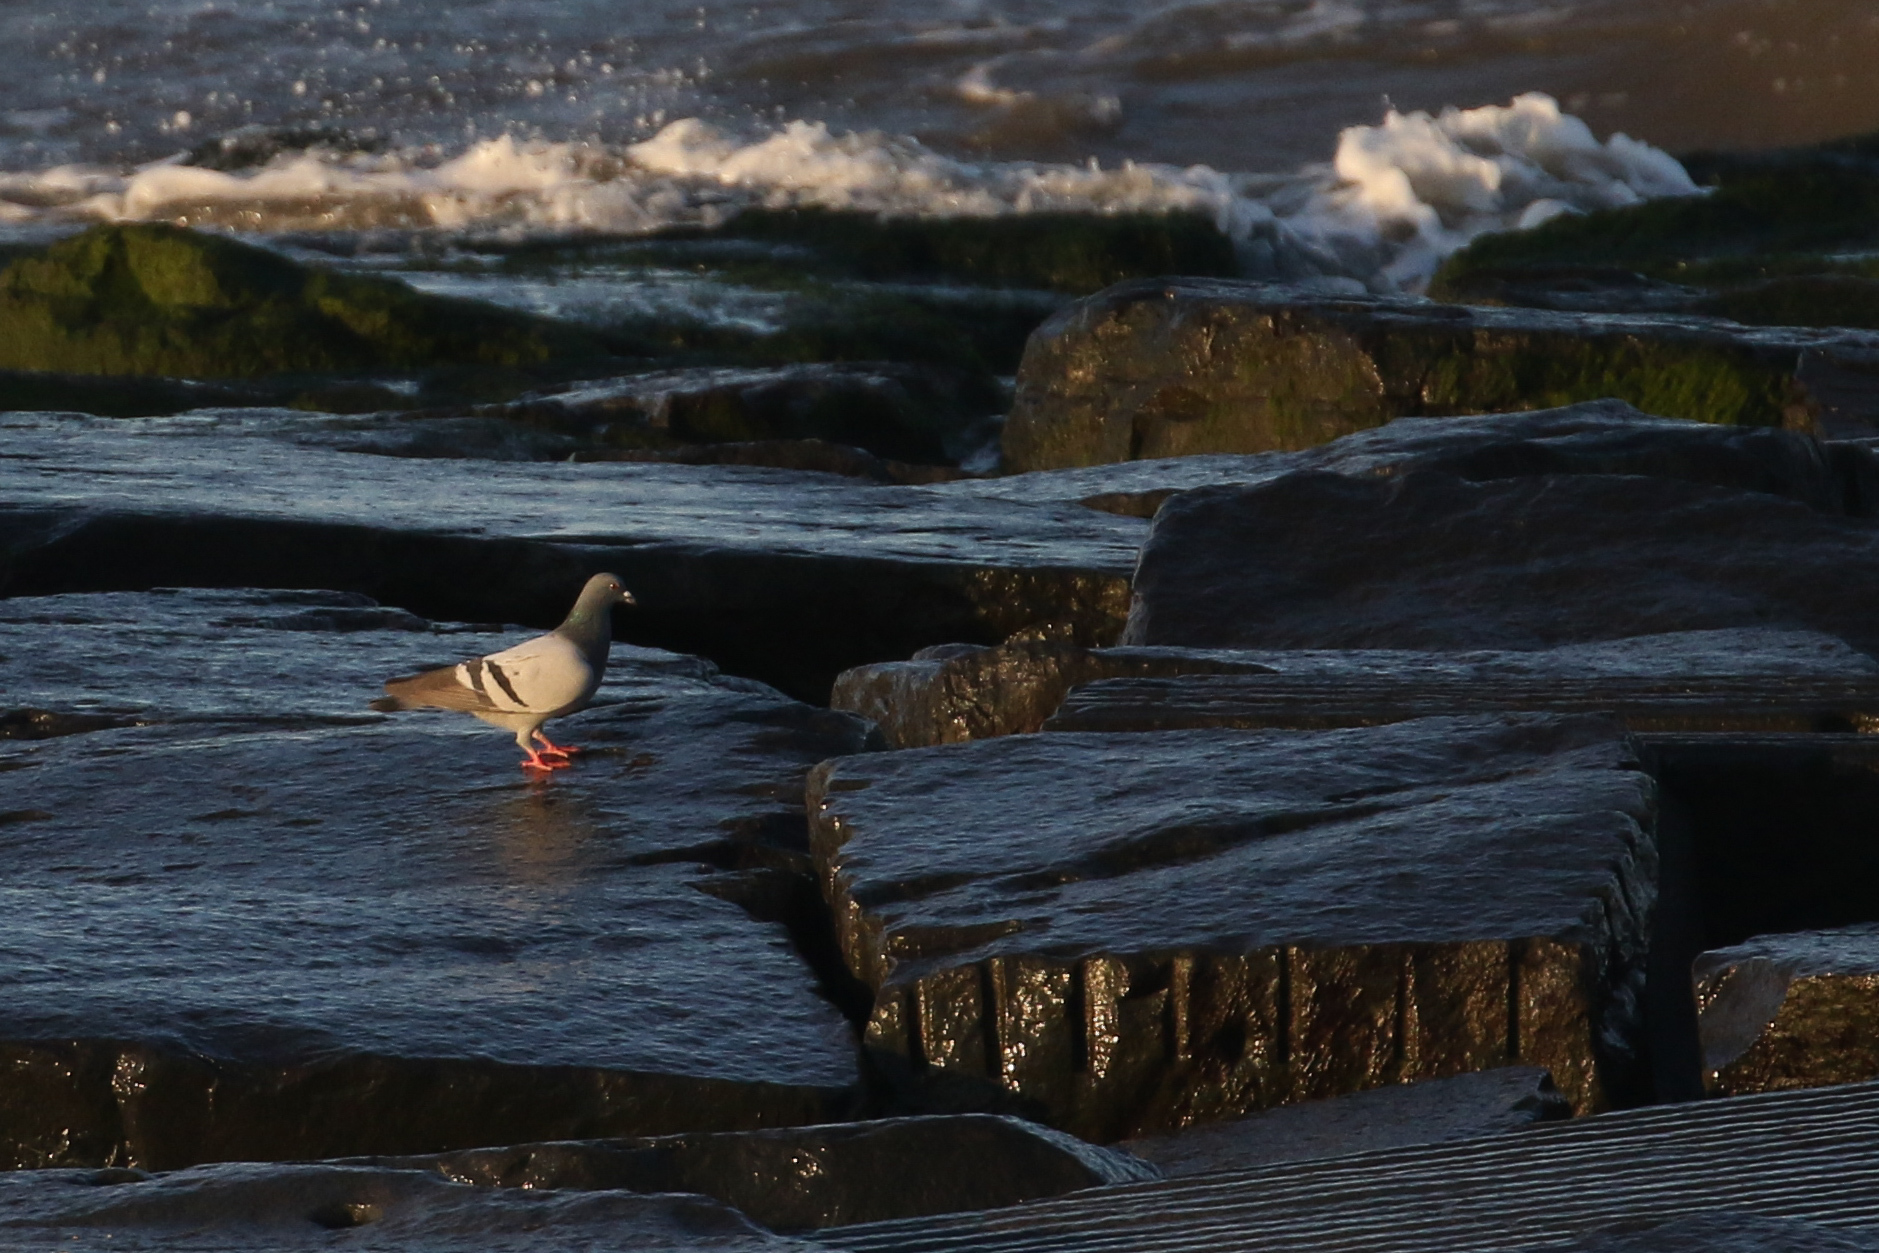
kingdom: Animalia
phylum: Chordata
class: Aves
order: Columbiformes
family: Columbidae
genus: Columba
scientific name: Columba livia
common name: Rock pigeon
